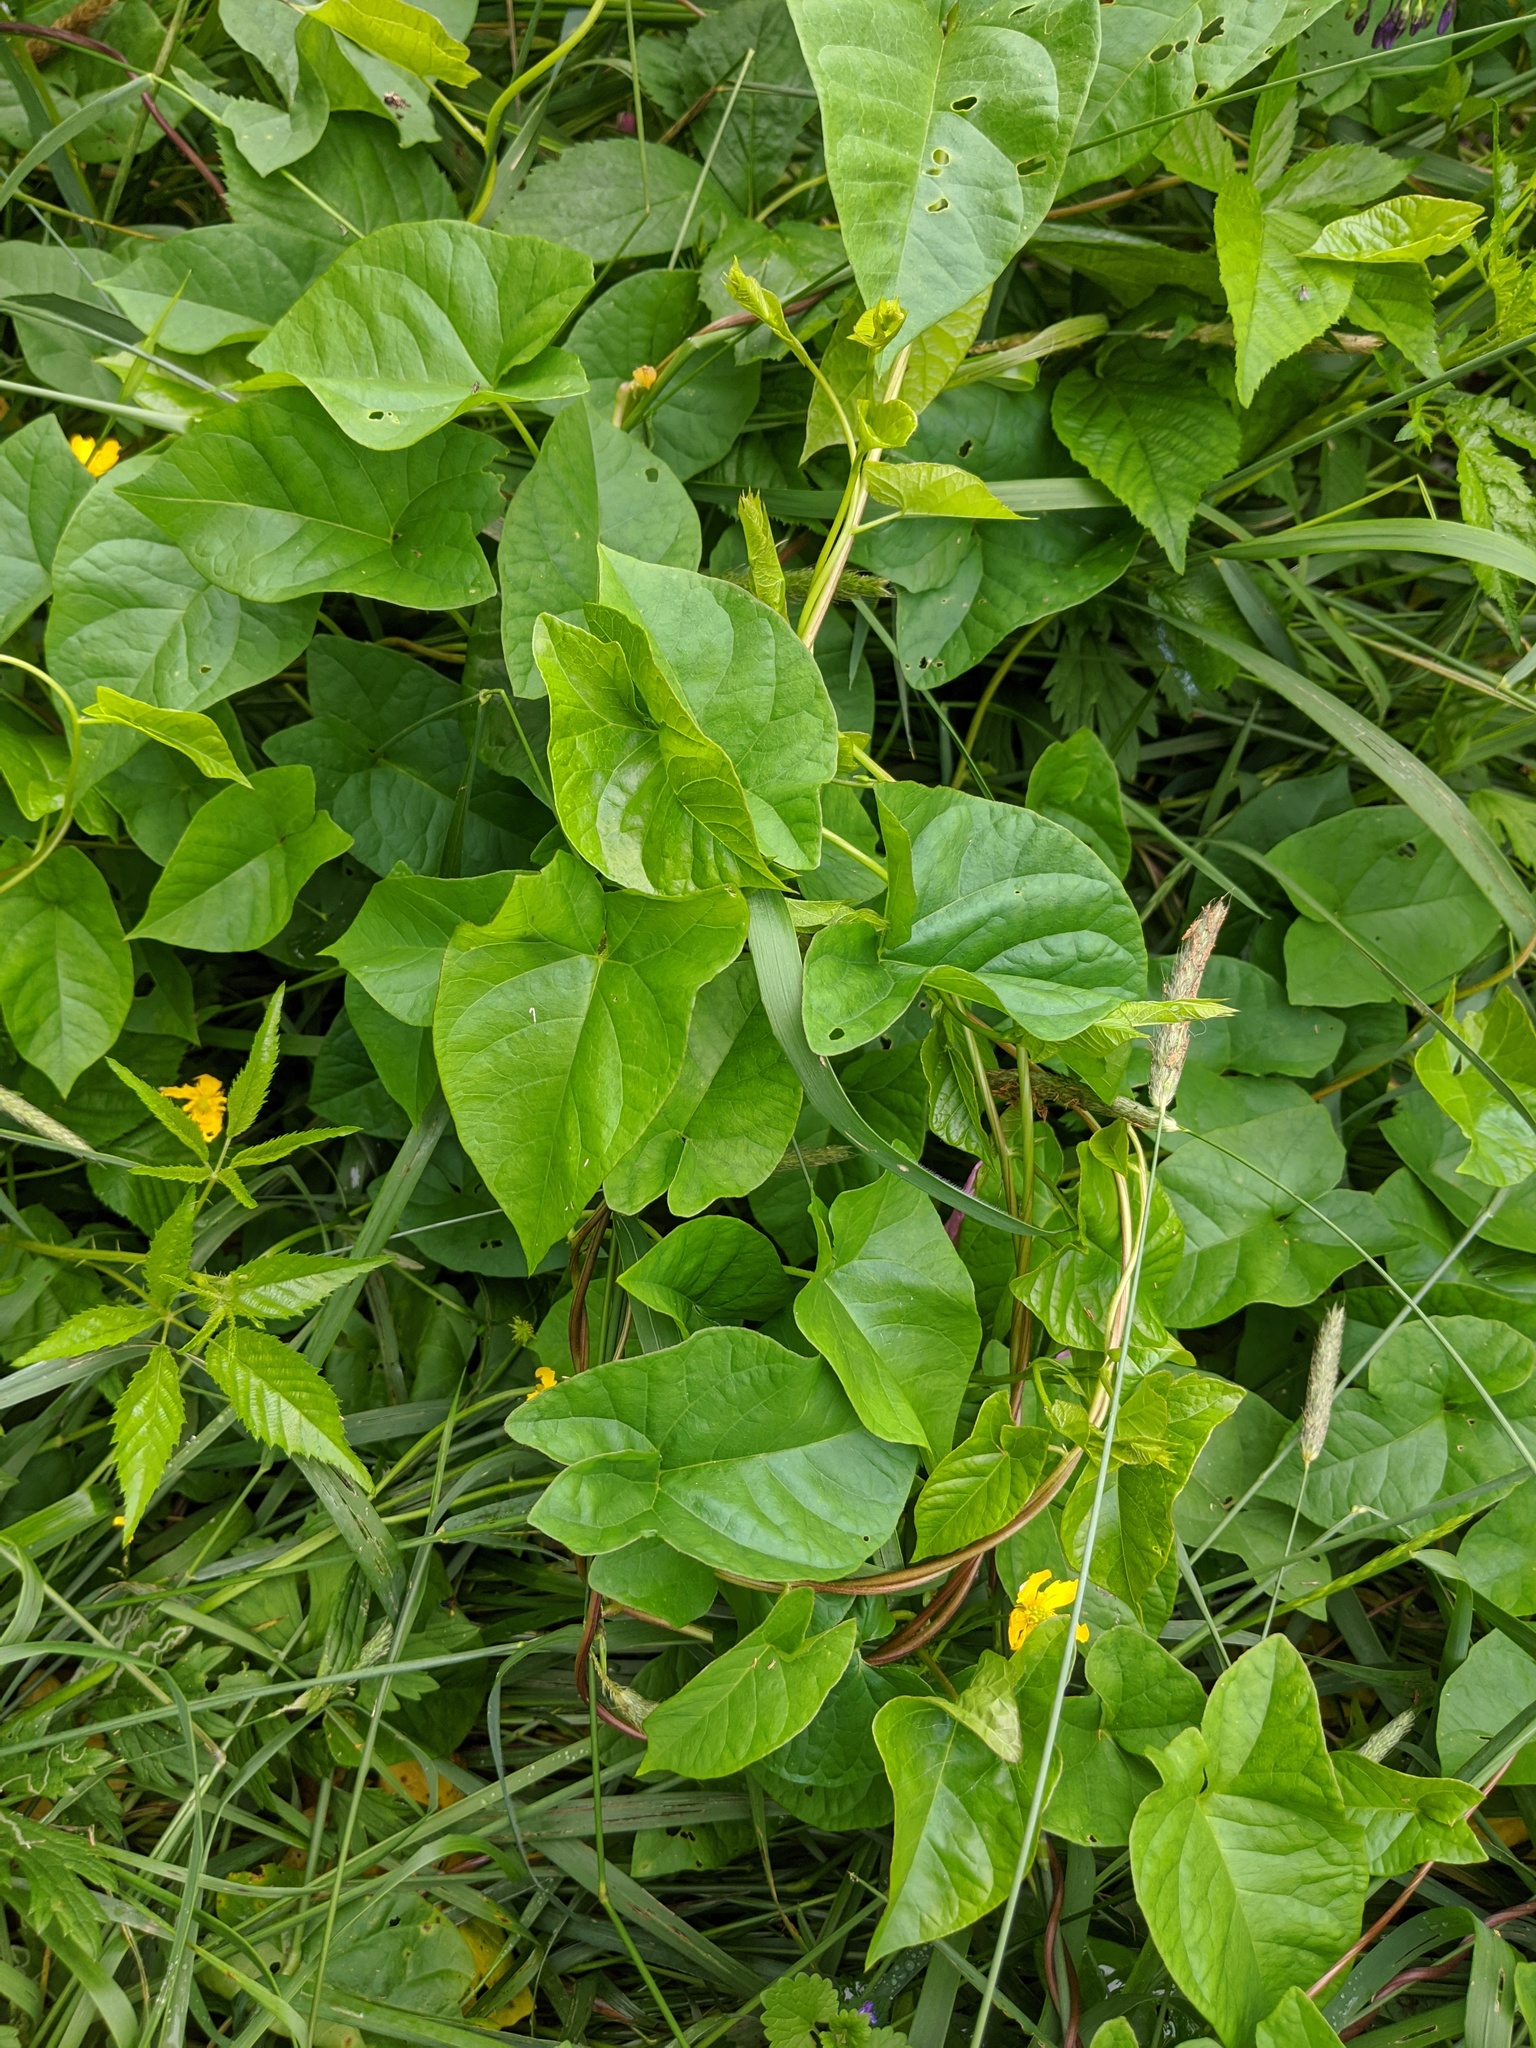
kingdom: Plantae
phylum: Tracheophyta
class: Magnoliopsida
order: Solanales
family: Convolvulaceae
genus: Calystegia
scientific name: Calystegia sepium
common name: Hedge bindweed
